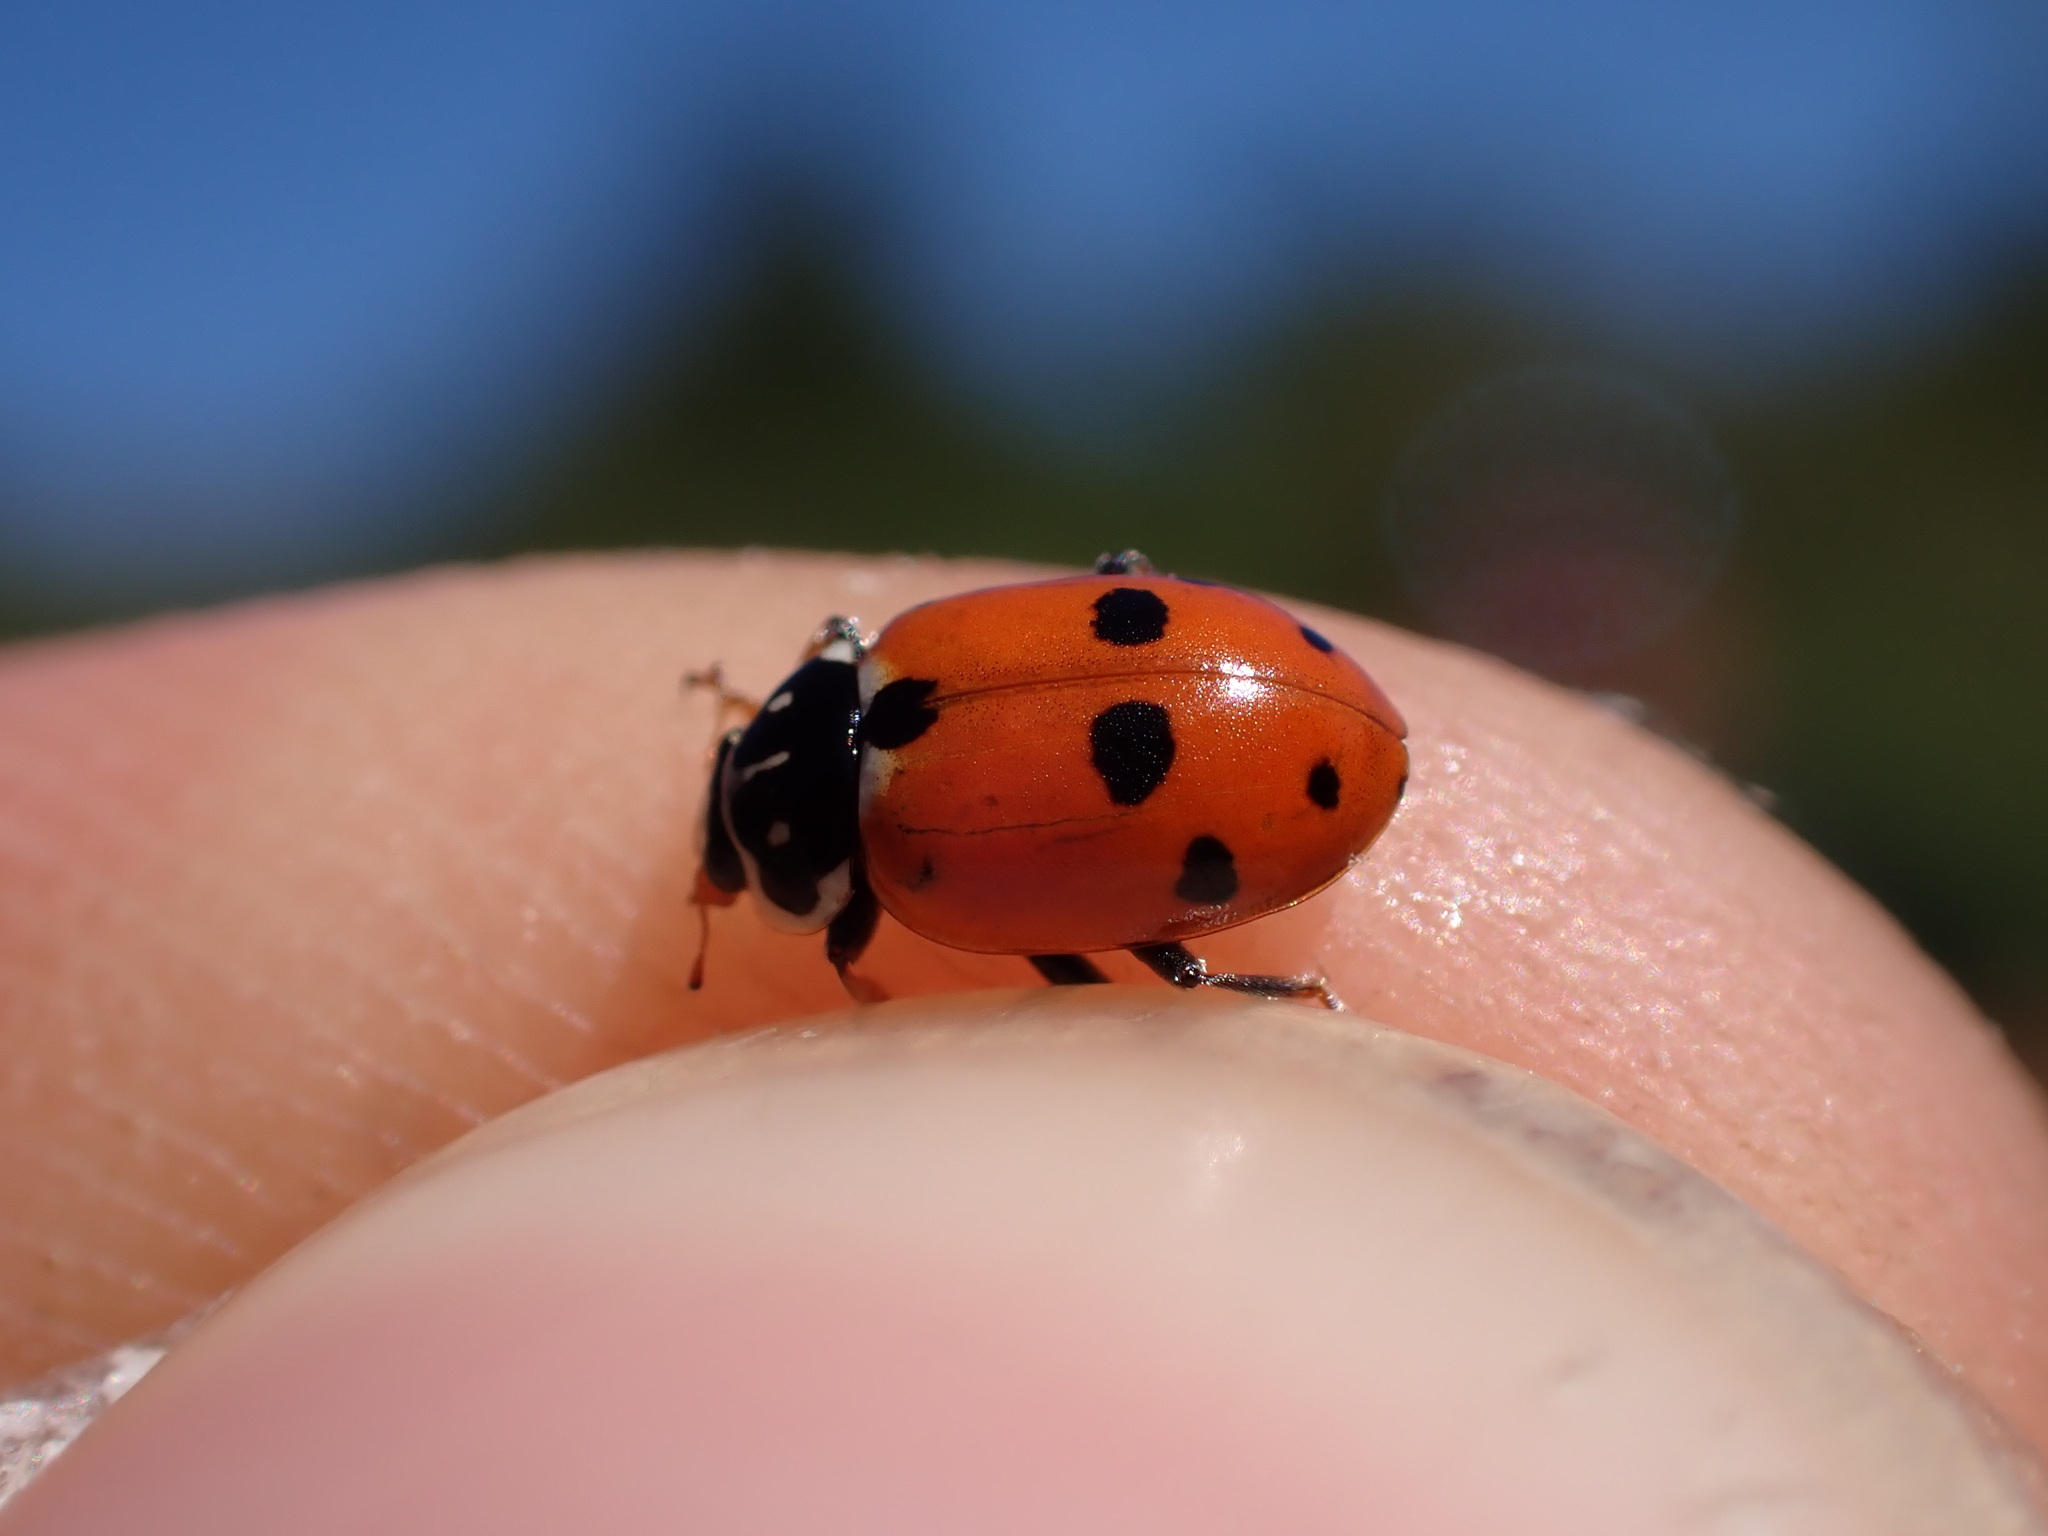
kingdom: Animalia
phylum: Arthropoda
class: Insecta
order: Coleoptera
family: Coccinellidae
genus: Hippodamia
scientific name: Hippodamia variegata
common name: Ladybird beetle
